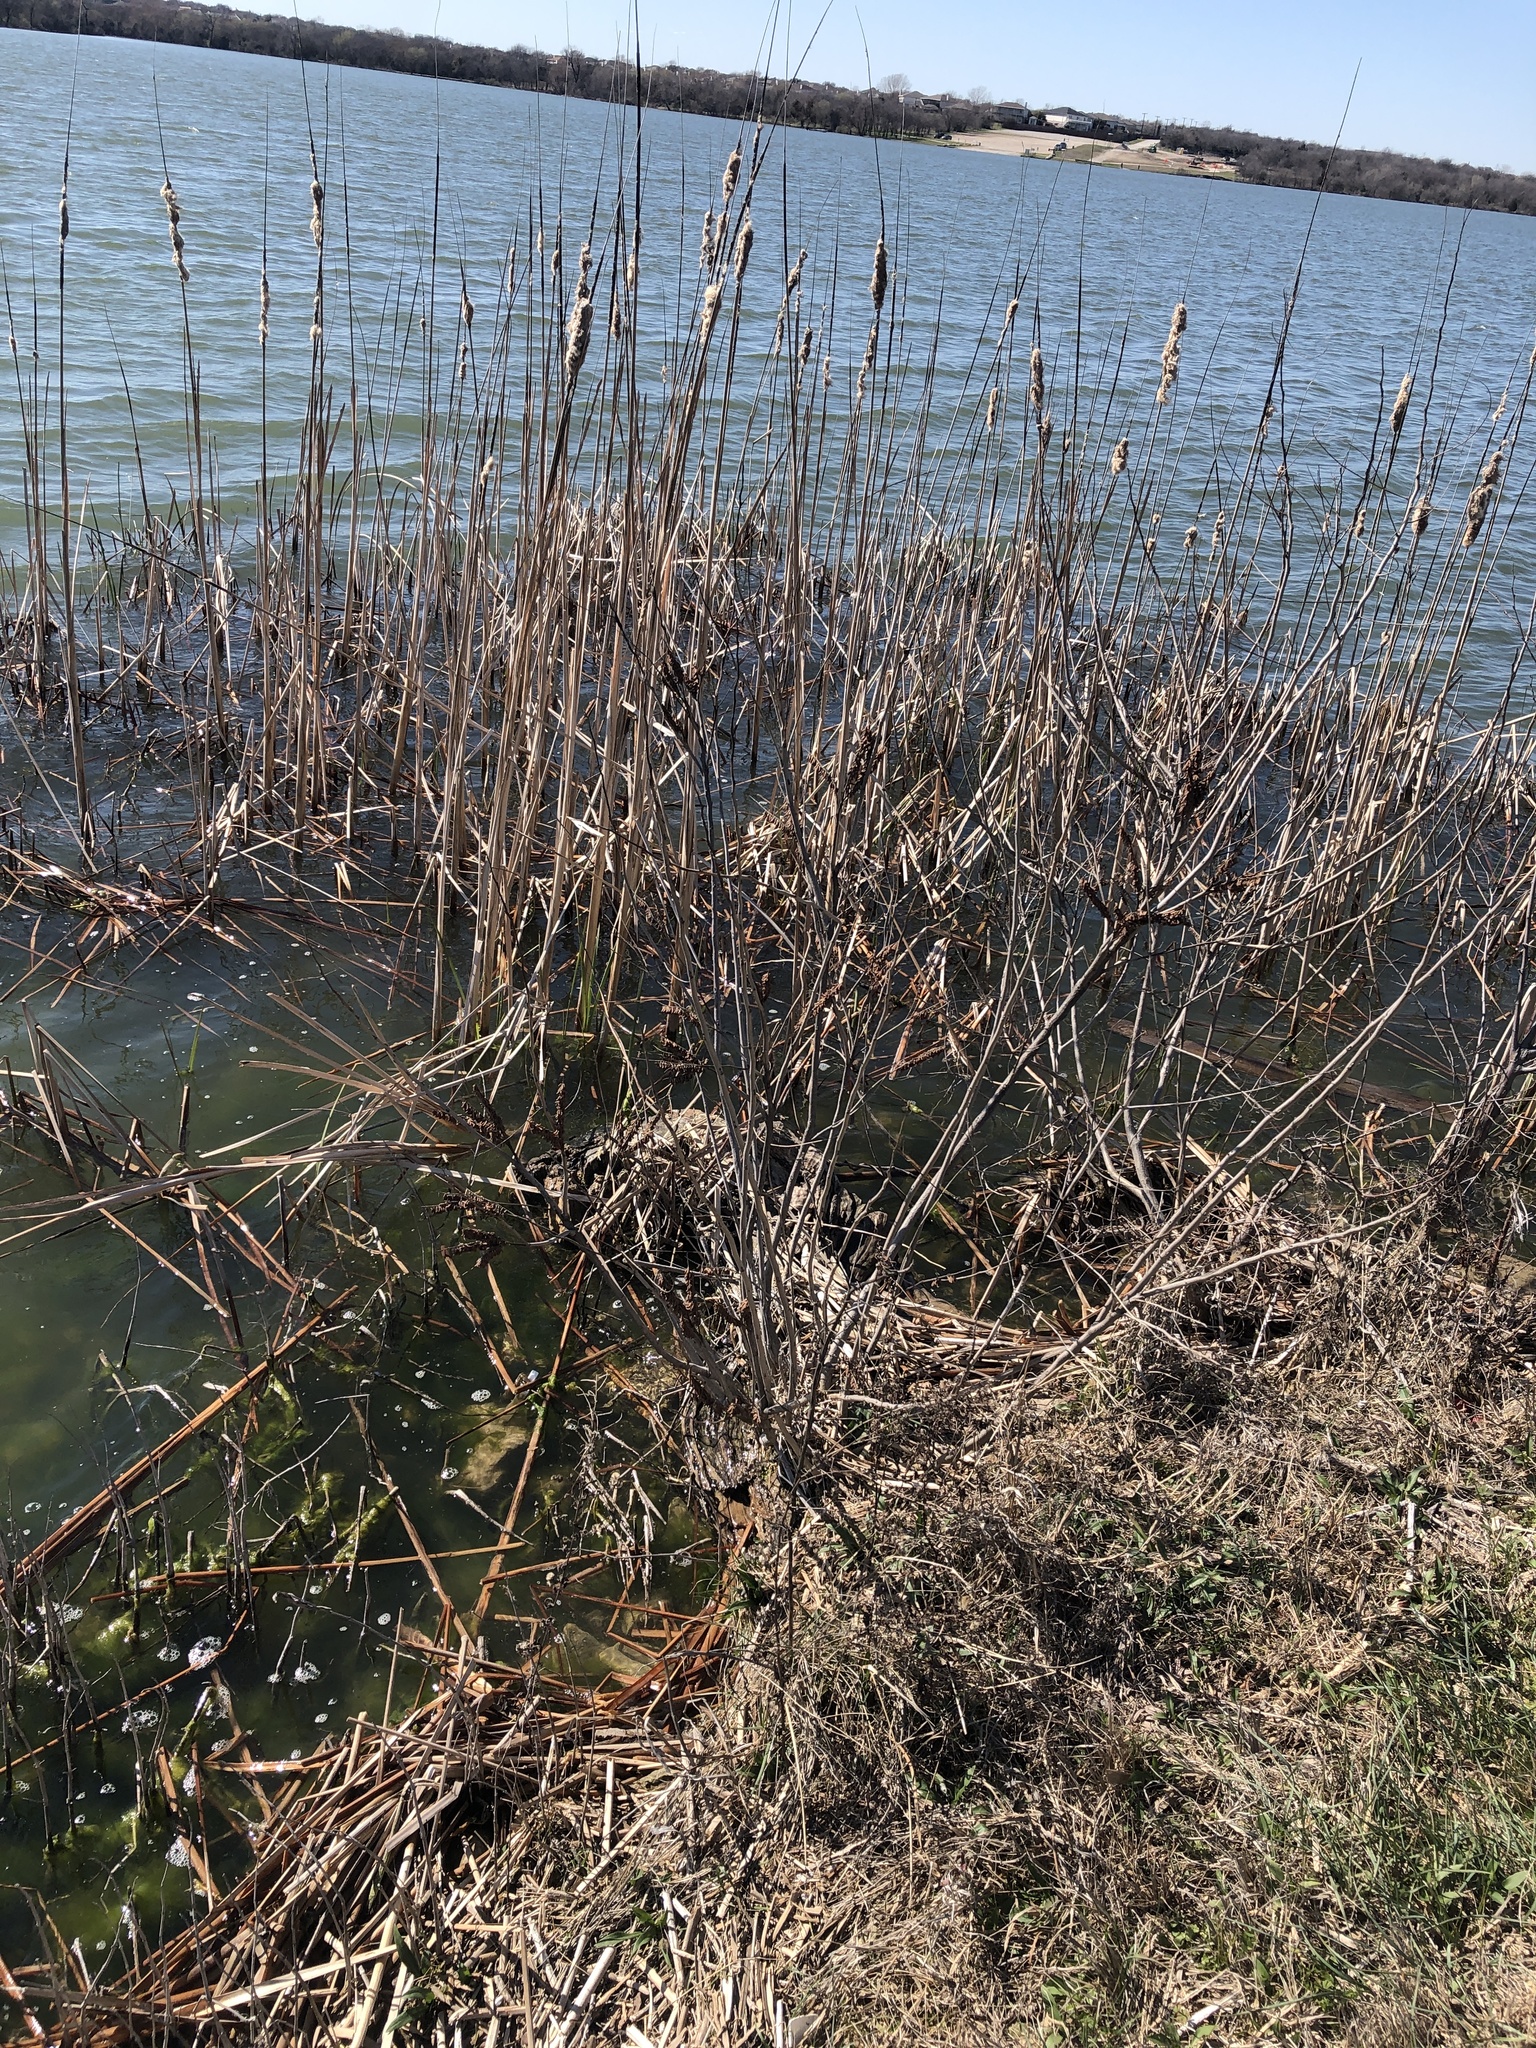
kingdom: Plantae
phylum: Tracheophyta
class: Magnoliopsida
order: Fabales
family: Fabaceae
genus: Amorpha
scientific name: Amorpha fruticosa
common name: False indigo
